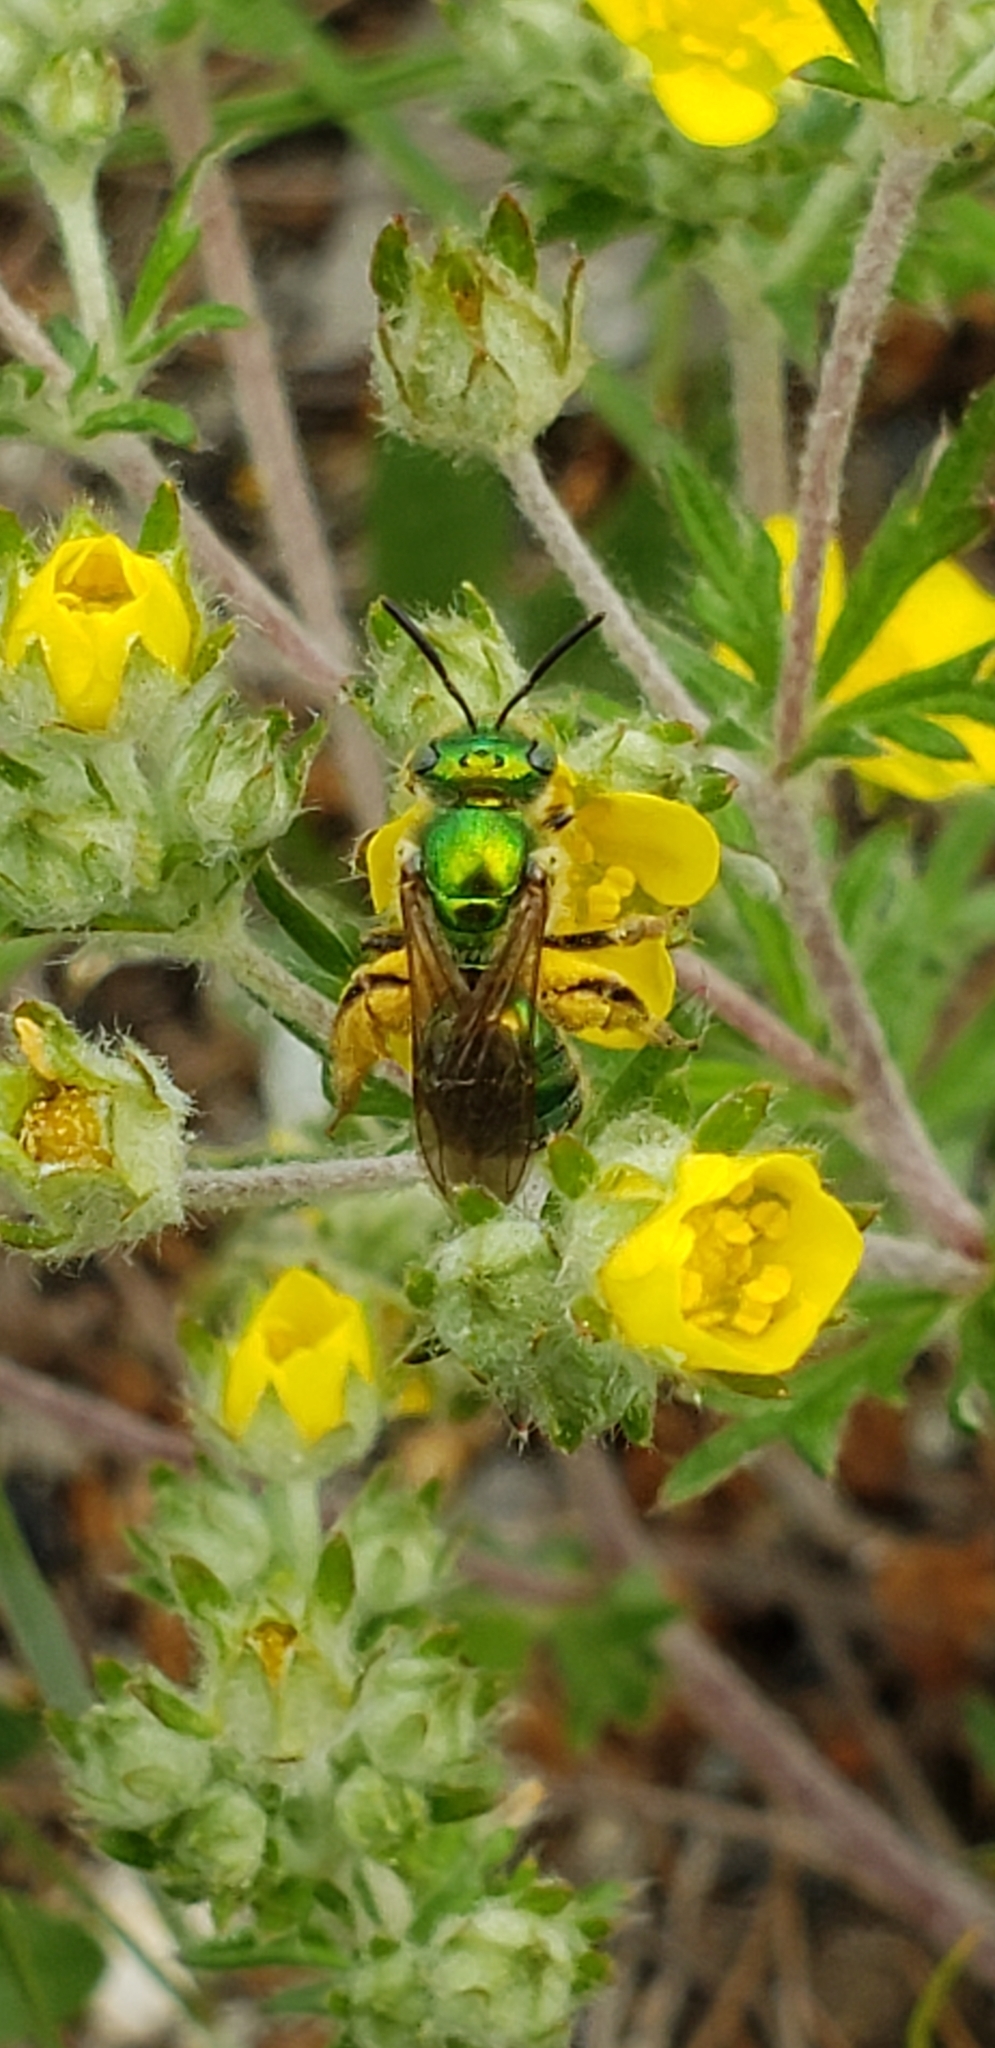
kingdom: Animalia
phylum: Arthropoda
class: Insecta
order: Hymenoptera
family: Halictidae
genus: Agapostemon
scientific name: Agapostemon texanus
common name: Texas striped sweat bee
